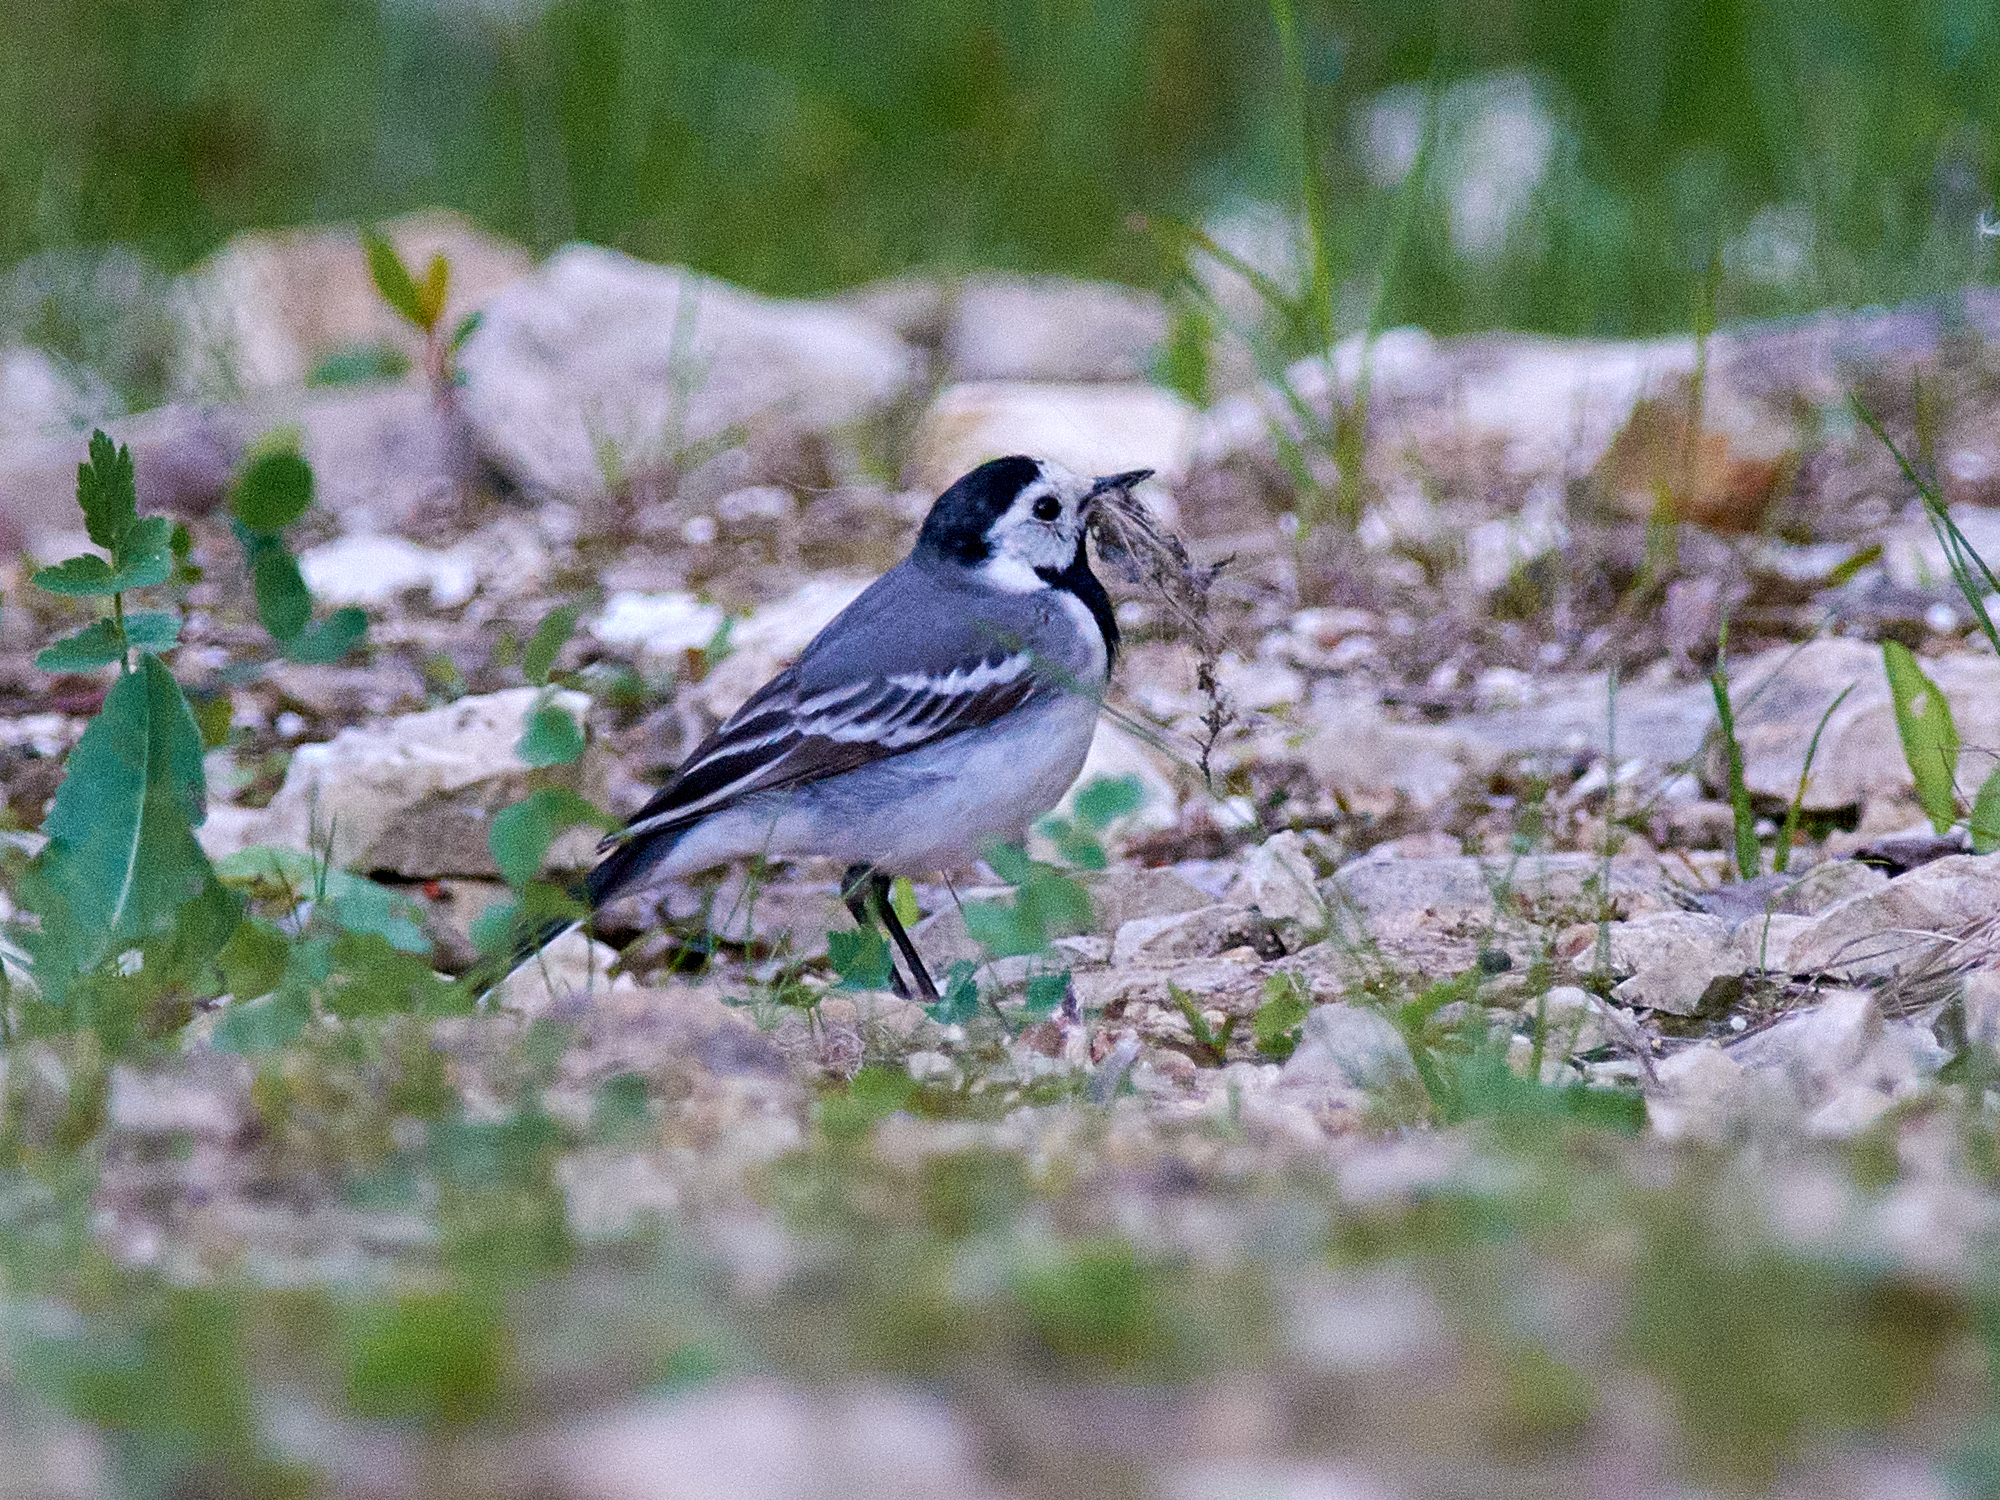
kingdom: Animalia
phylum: Chordata
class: Aves
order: Passeriformes
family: Motacillidae
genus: Motacilla
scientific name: Motacilla alba
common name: White wagtail
